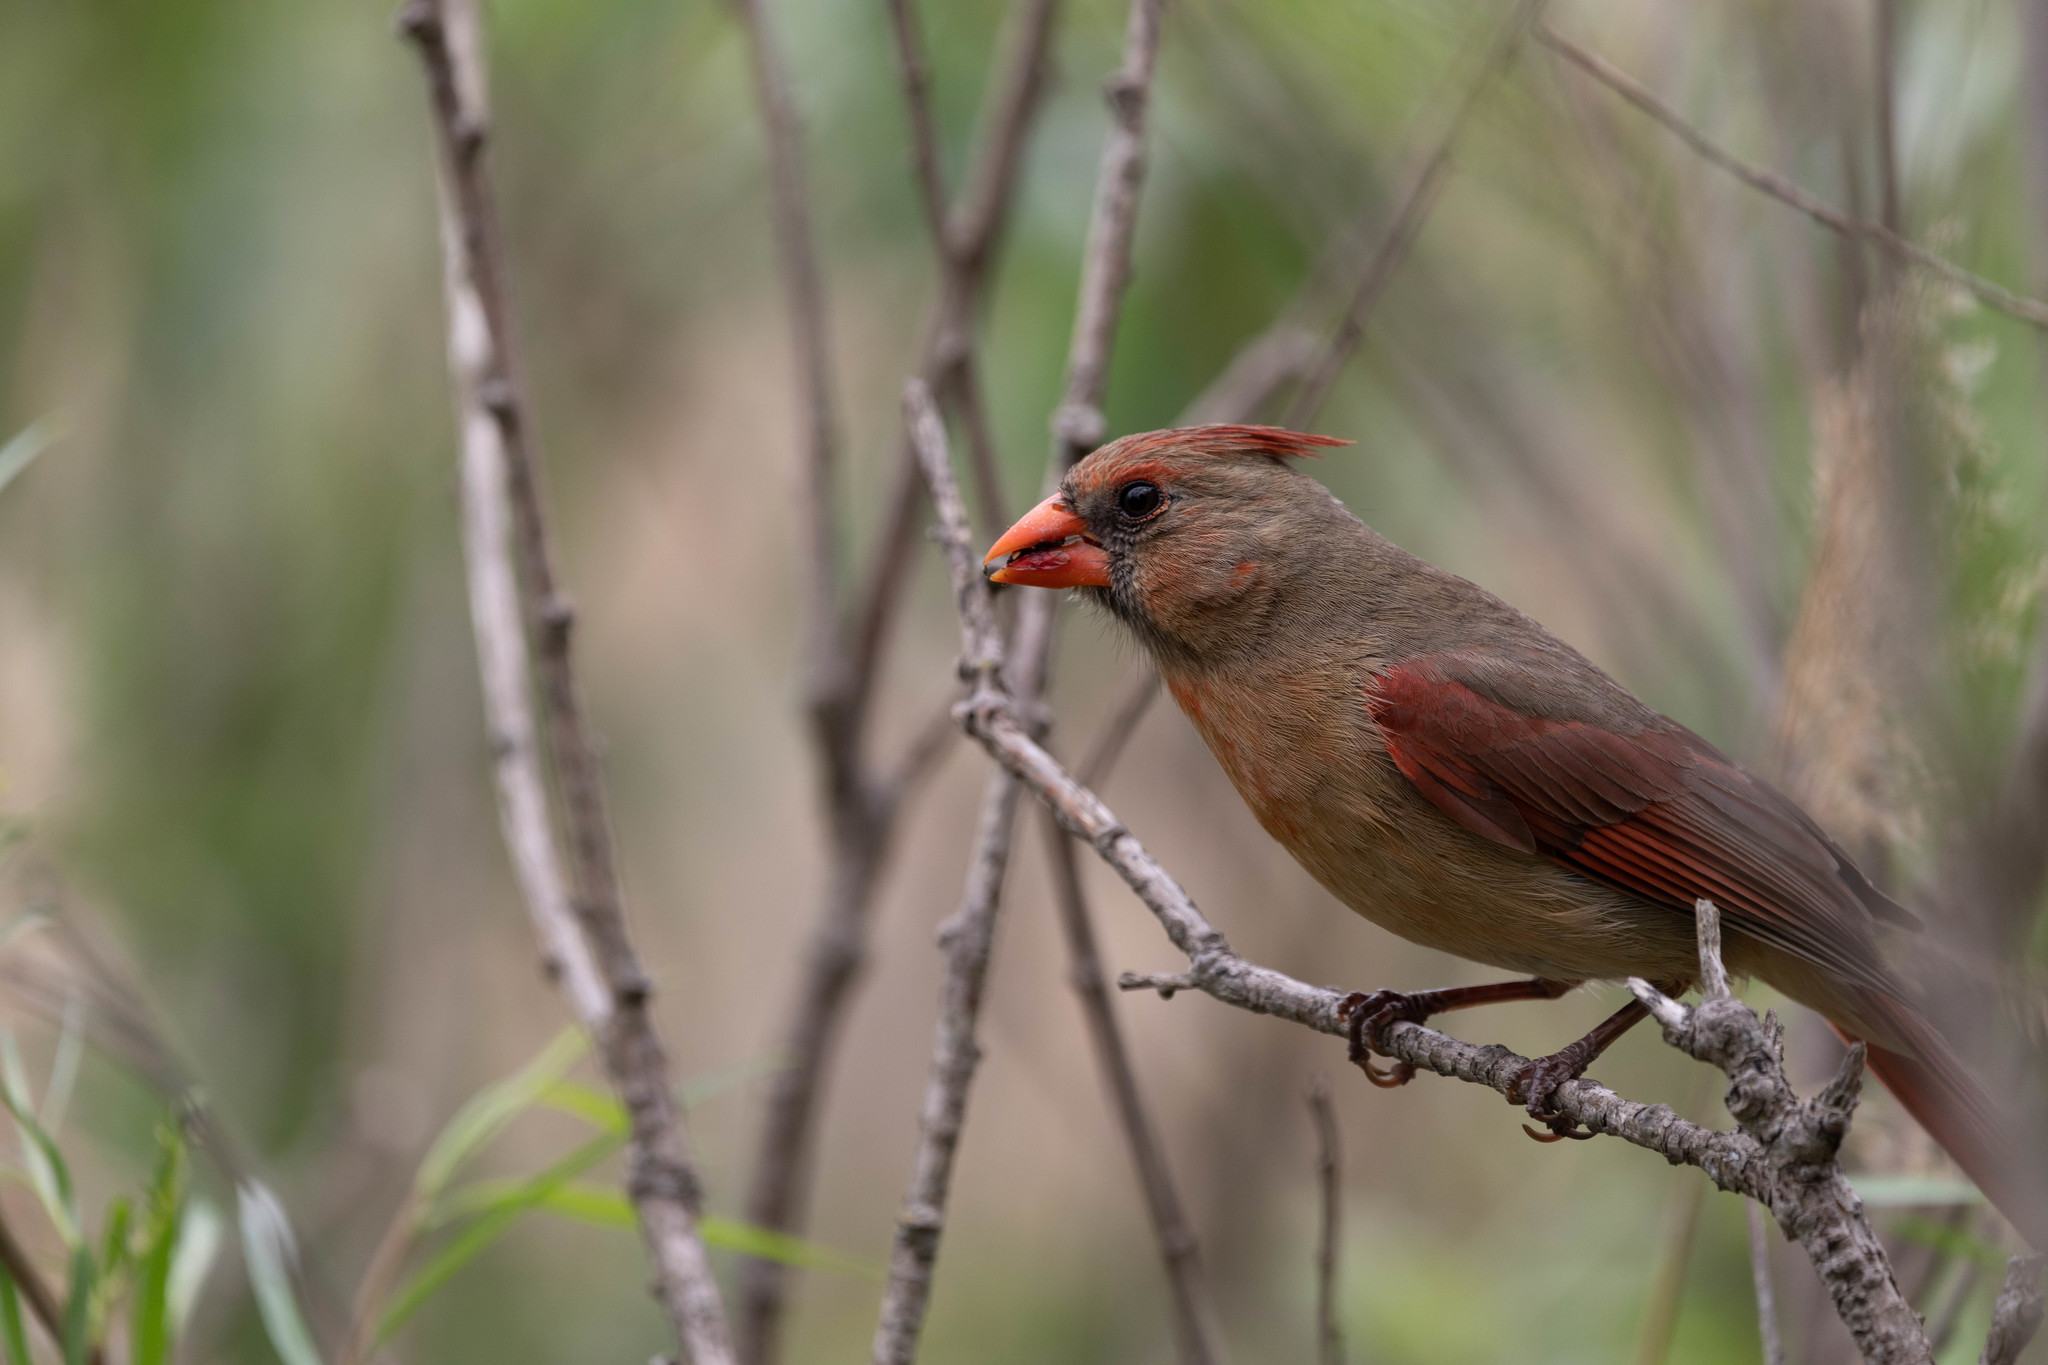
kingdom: Animalia
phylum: Chordata
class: Aves
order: Passeriformes
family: Cardinalidae
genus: Cardinalis
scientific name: Cardinalis cardinalis
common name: Northern cardinal
